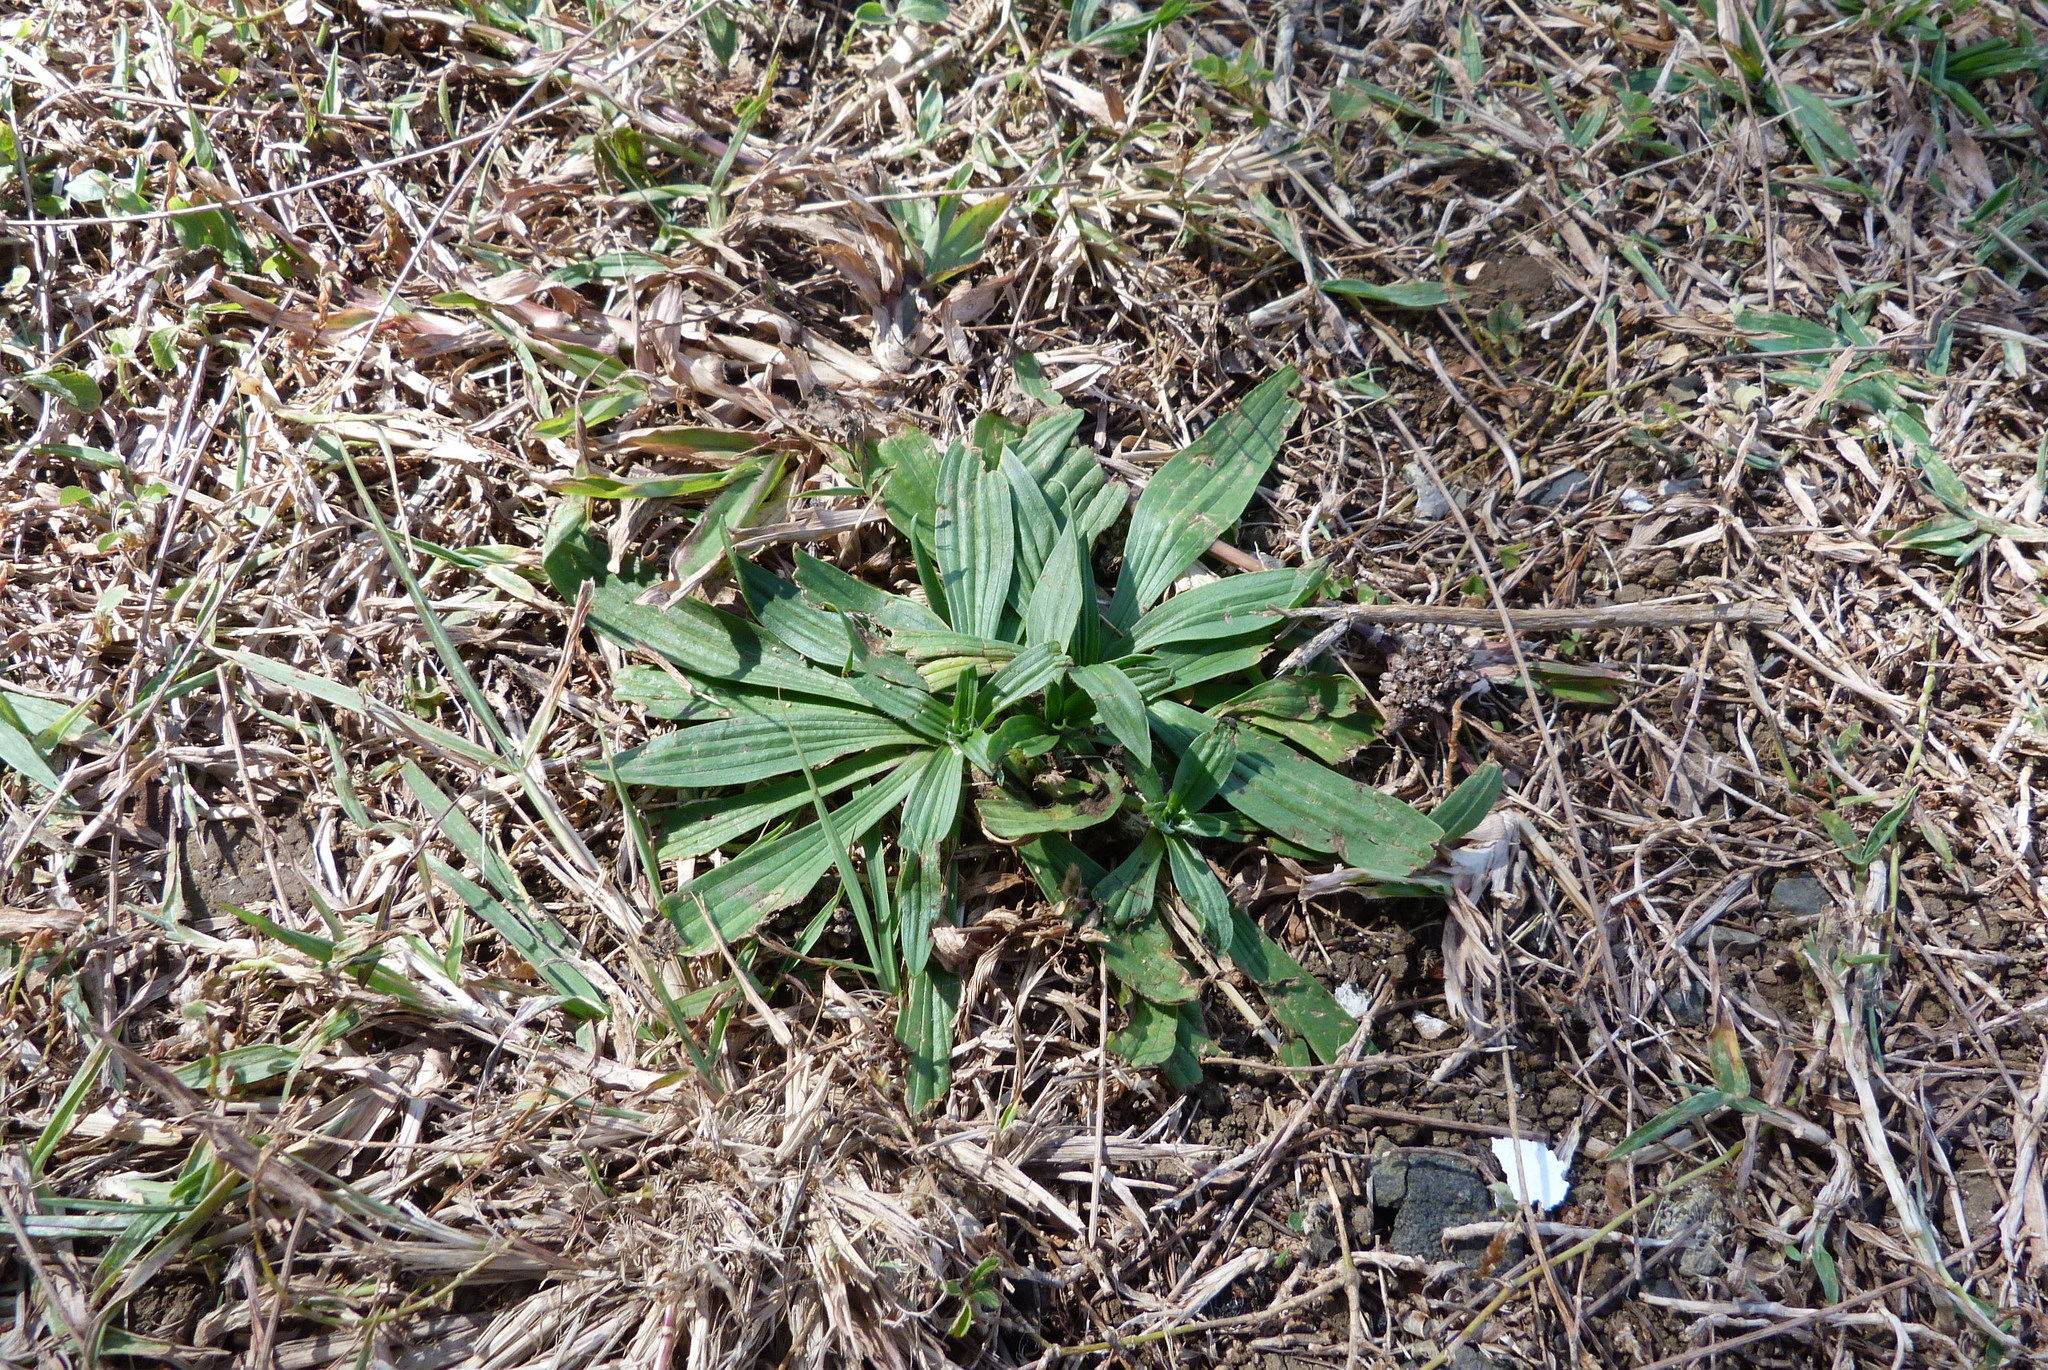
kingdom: Plantae
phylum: Tracheophyta
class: Magnoliopsida
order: Lamiales
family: Plantaginaceae
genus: Plantago
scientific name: Plantago lanceolata
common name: Ribwort plantain
